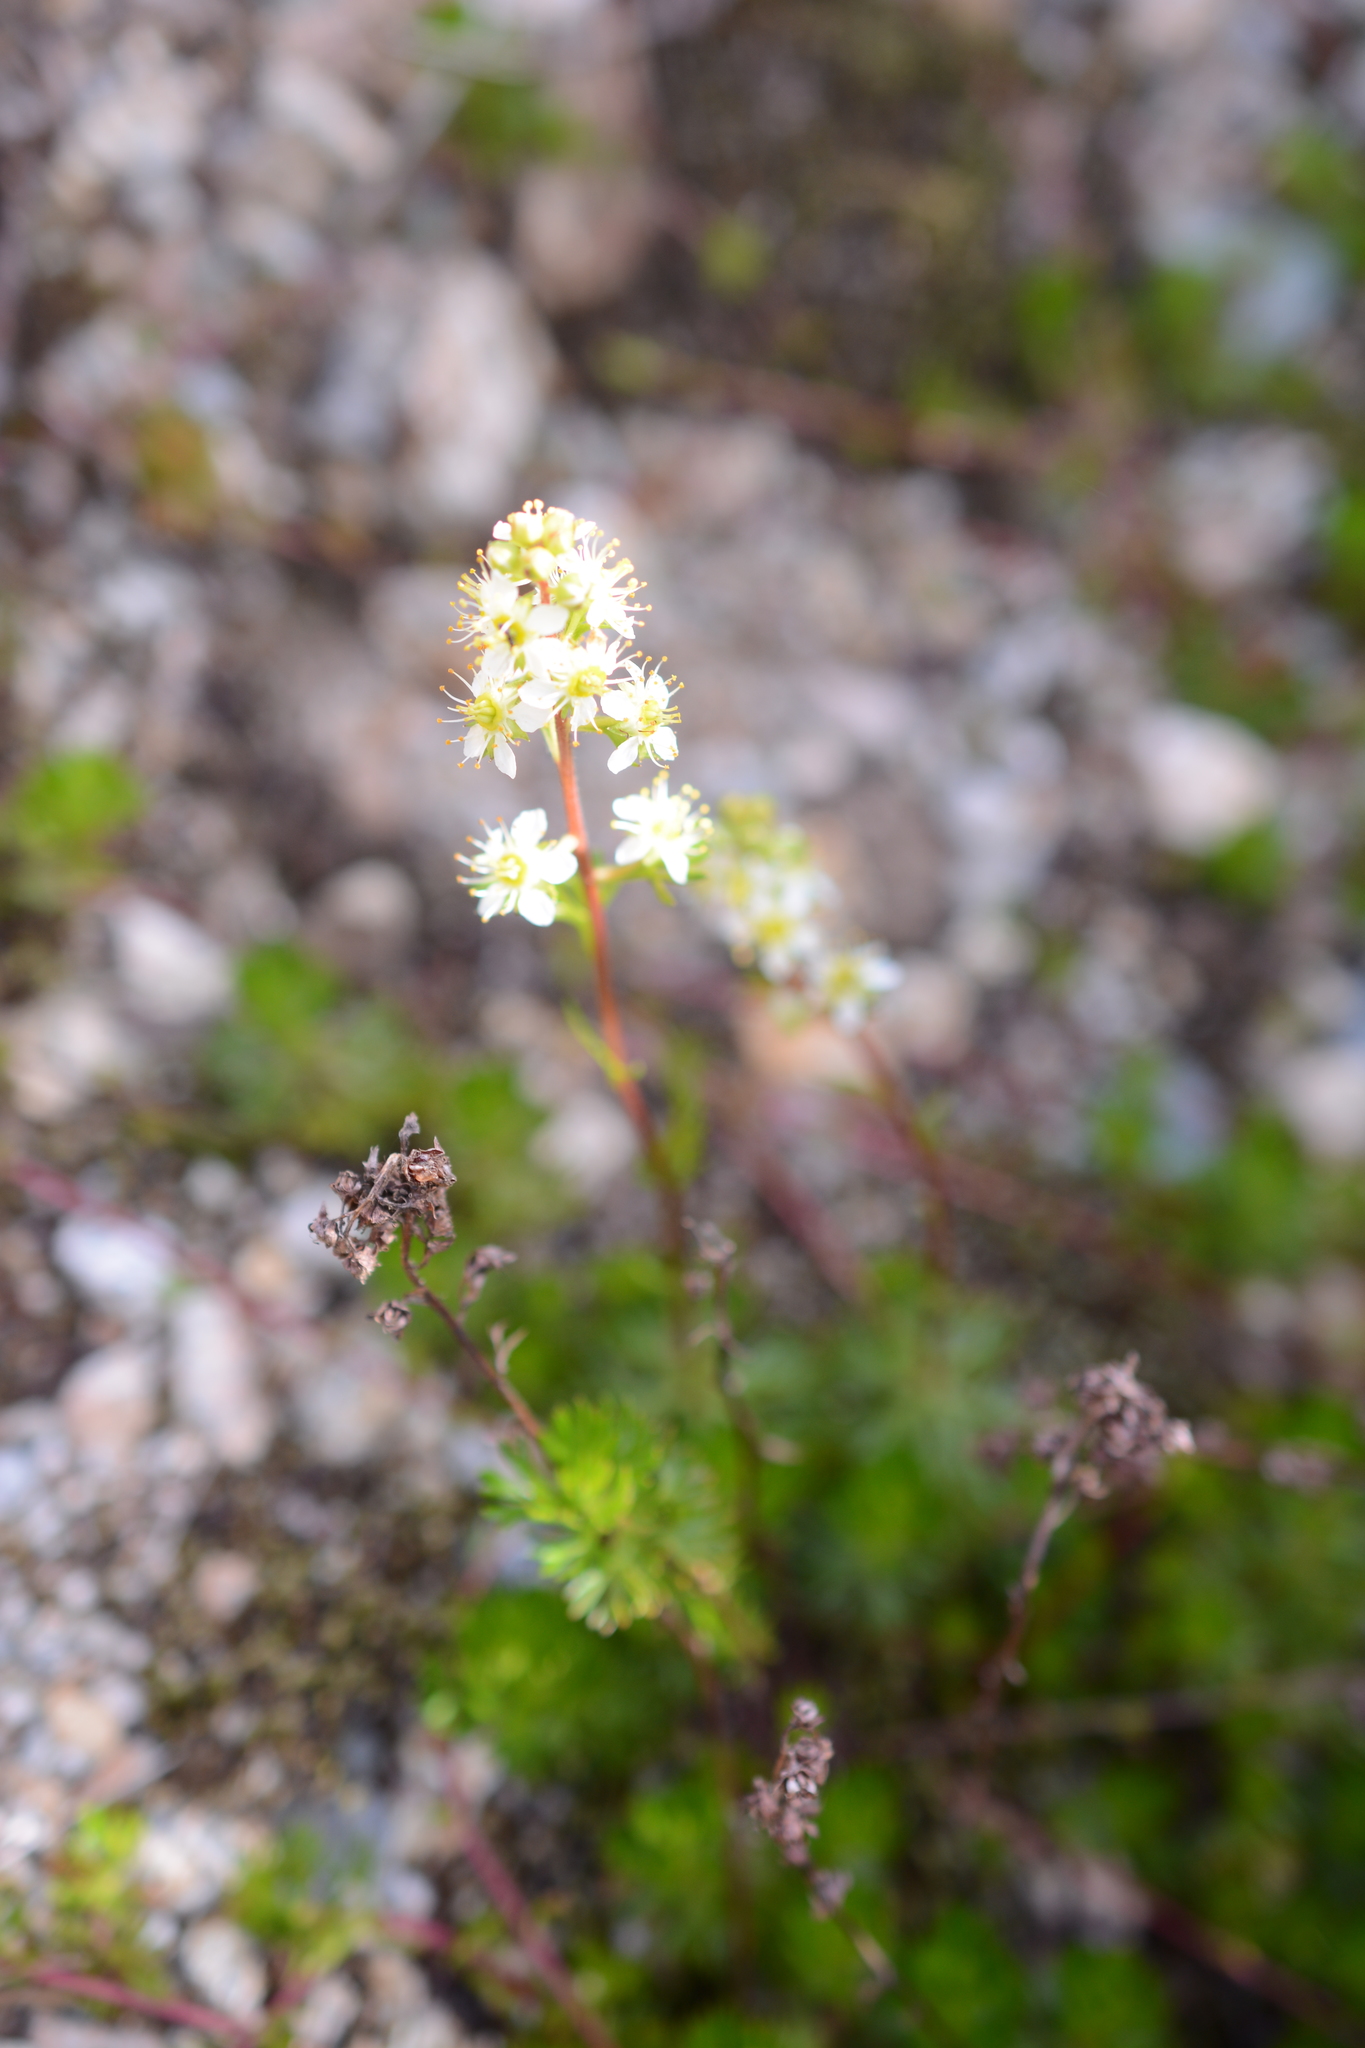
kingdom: Plantae
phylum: Tracheophyta
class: Magnoliopsida
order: Rosales
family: Rosaceae
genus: Luetkea
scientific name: Luetkea pectinata
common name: Partridgefoot
